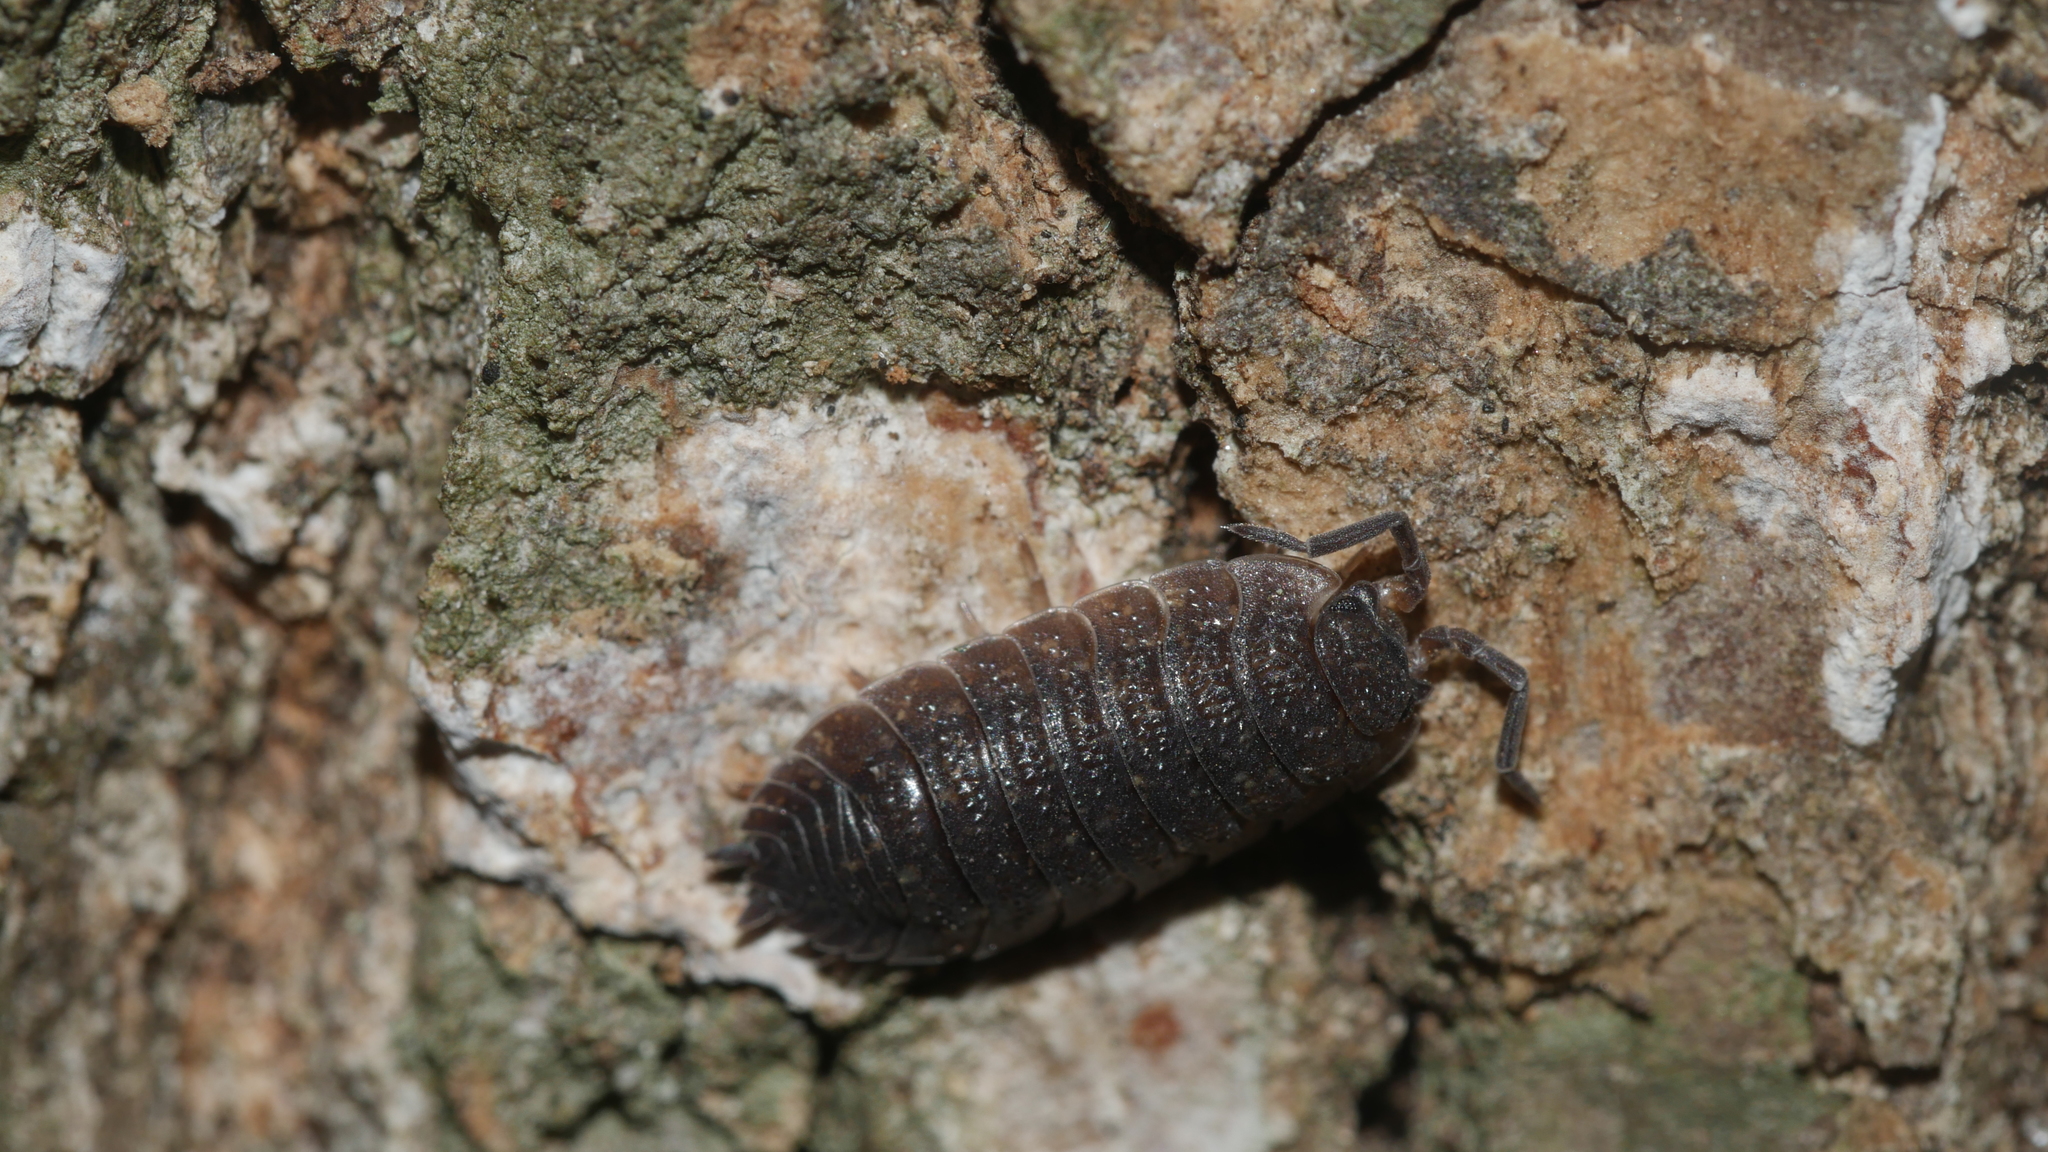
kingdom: Animalia
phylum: Arthropoda
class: Malacostraca
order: Isopoda
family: Porcellionidae
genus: Porcellio
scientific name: Porcellio scaber
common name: Common rough woodlouse
